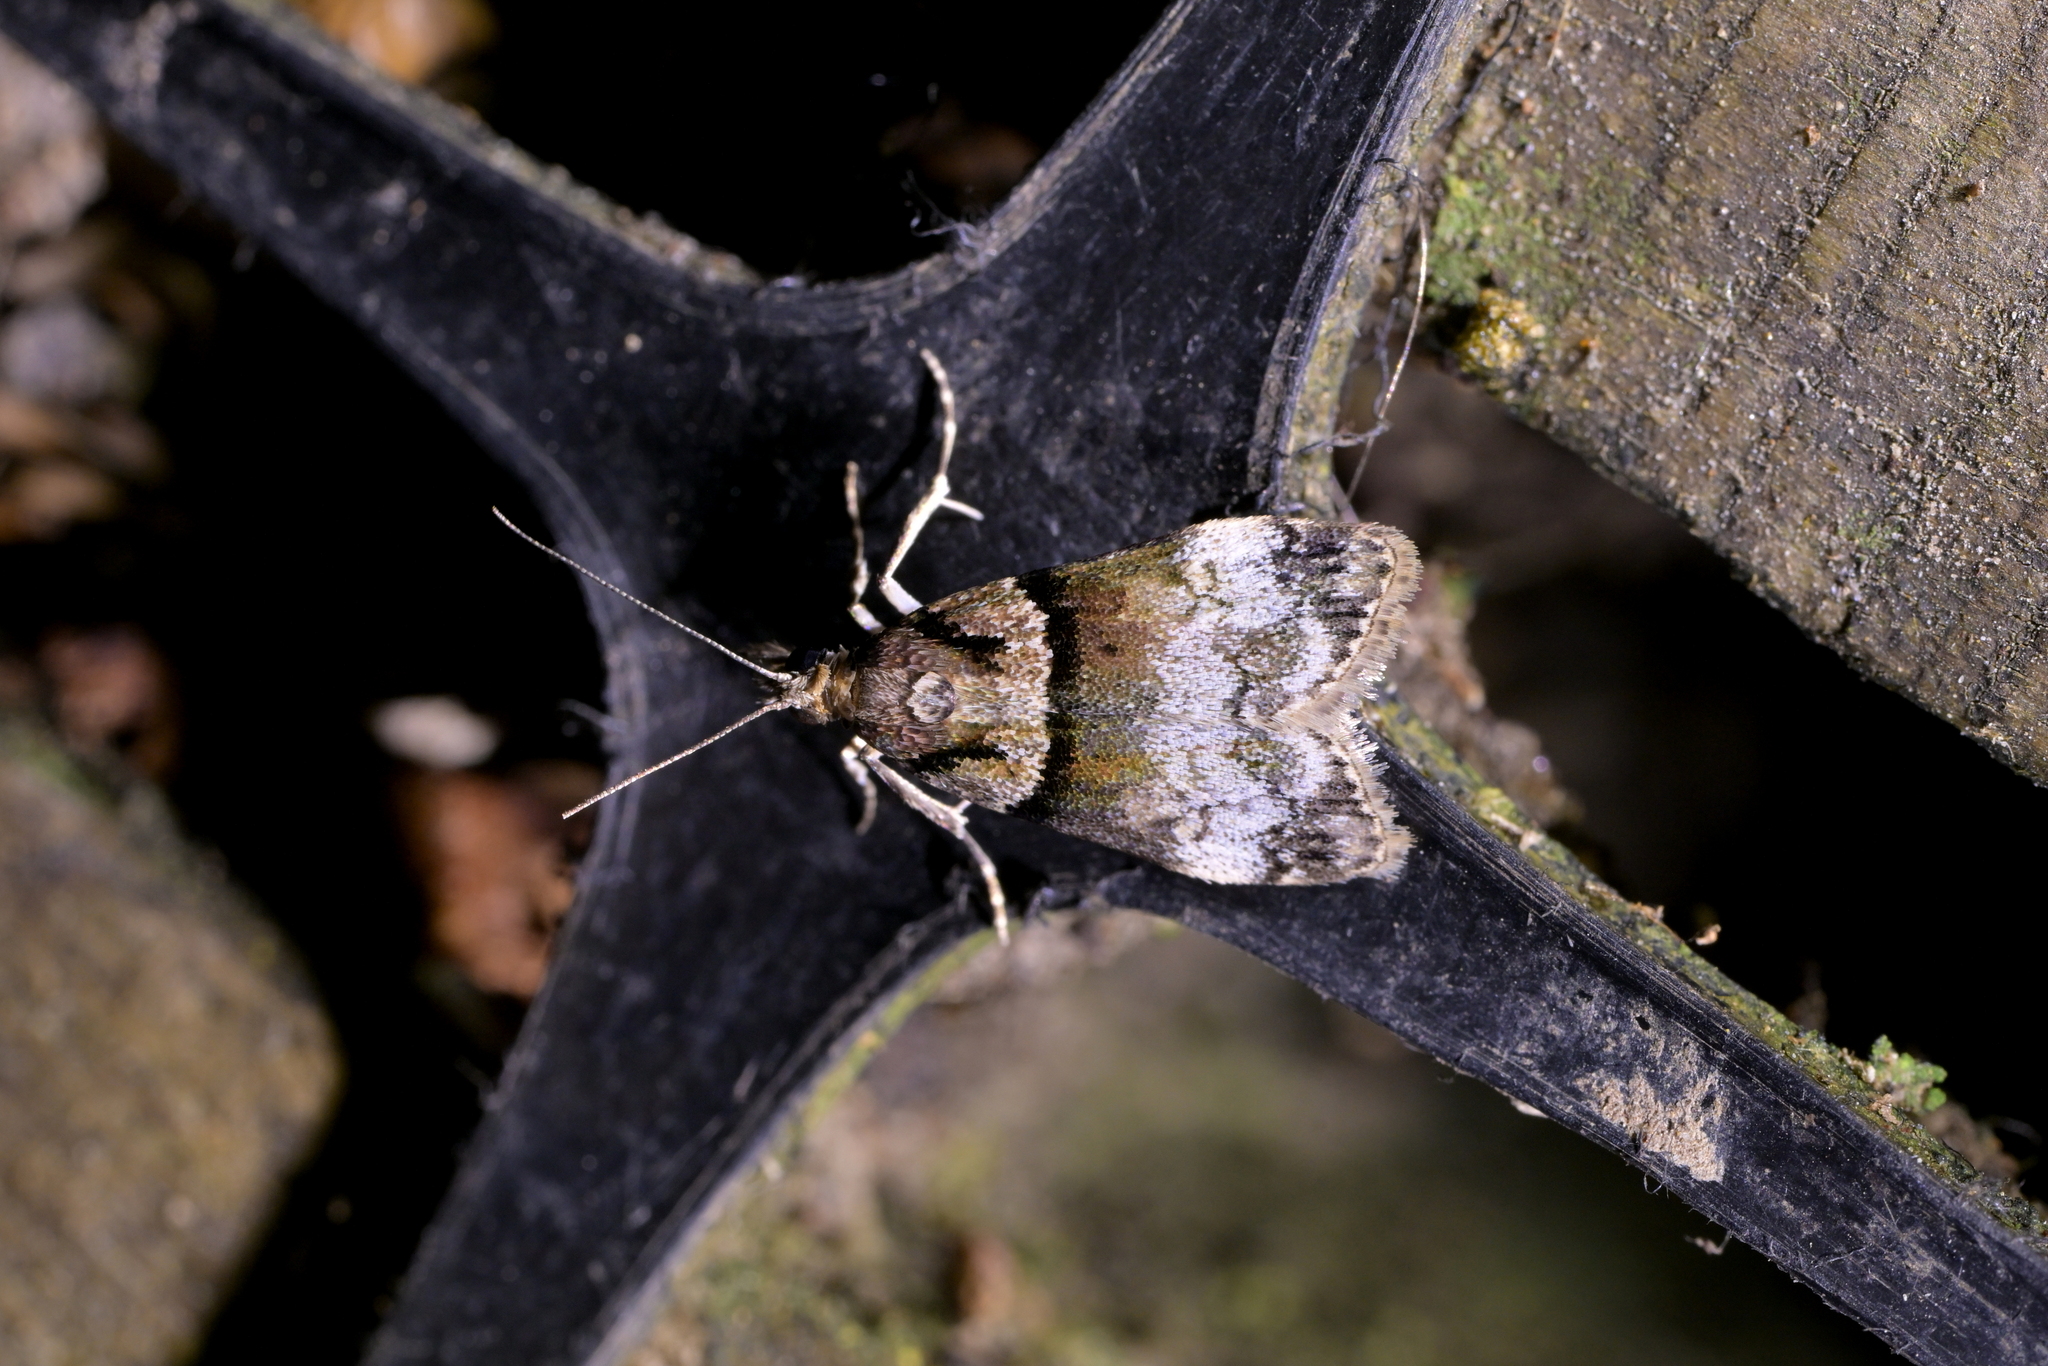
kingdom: Animalia
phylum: Arthropoda
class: Insecta
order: Lepidoptera
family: Crambidae
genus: Eudonia
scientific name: Eudonia colpota
